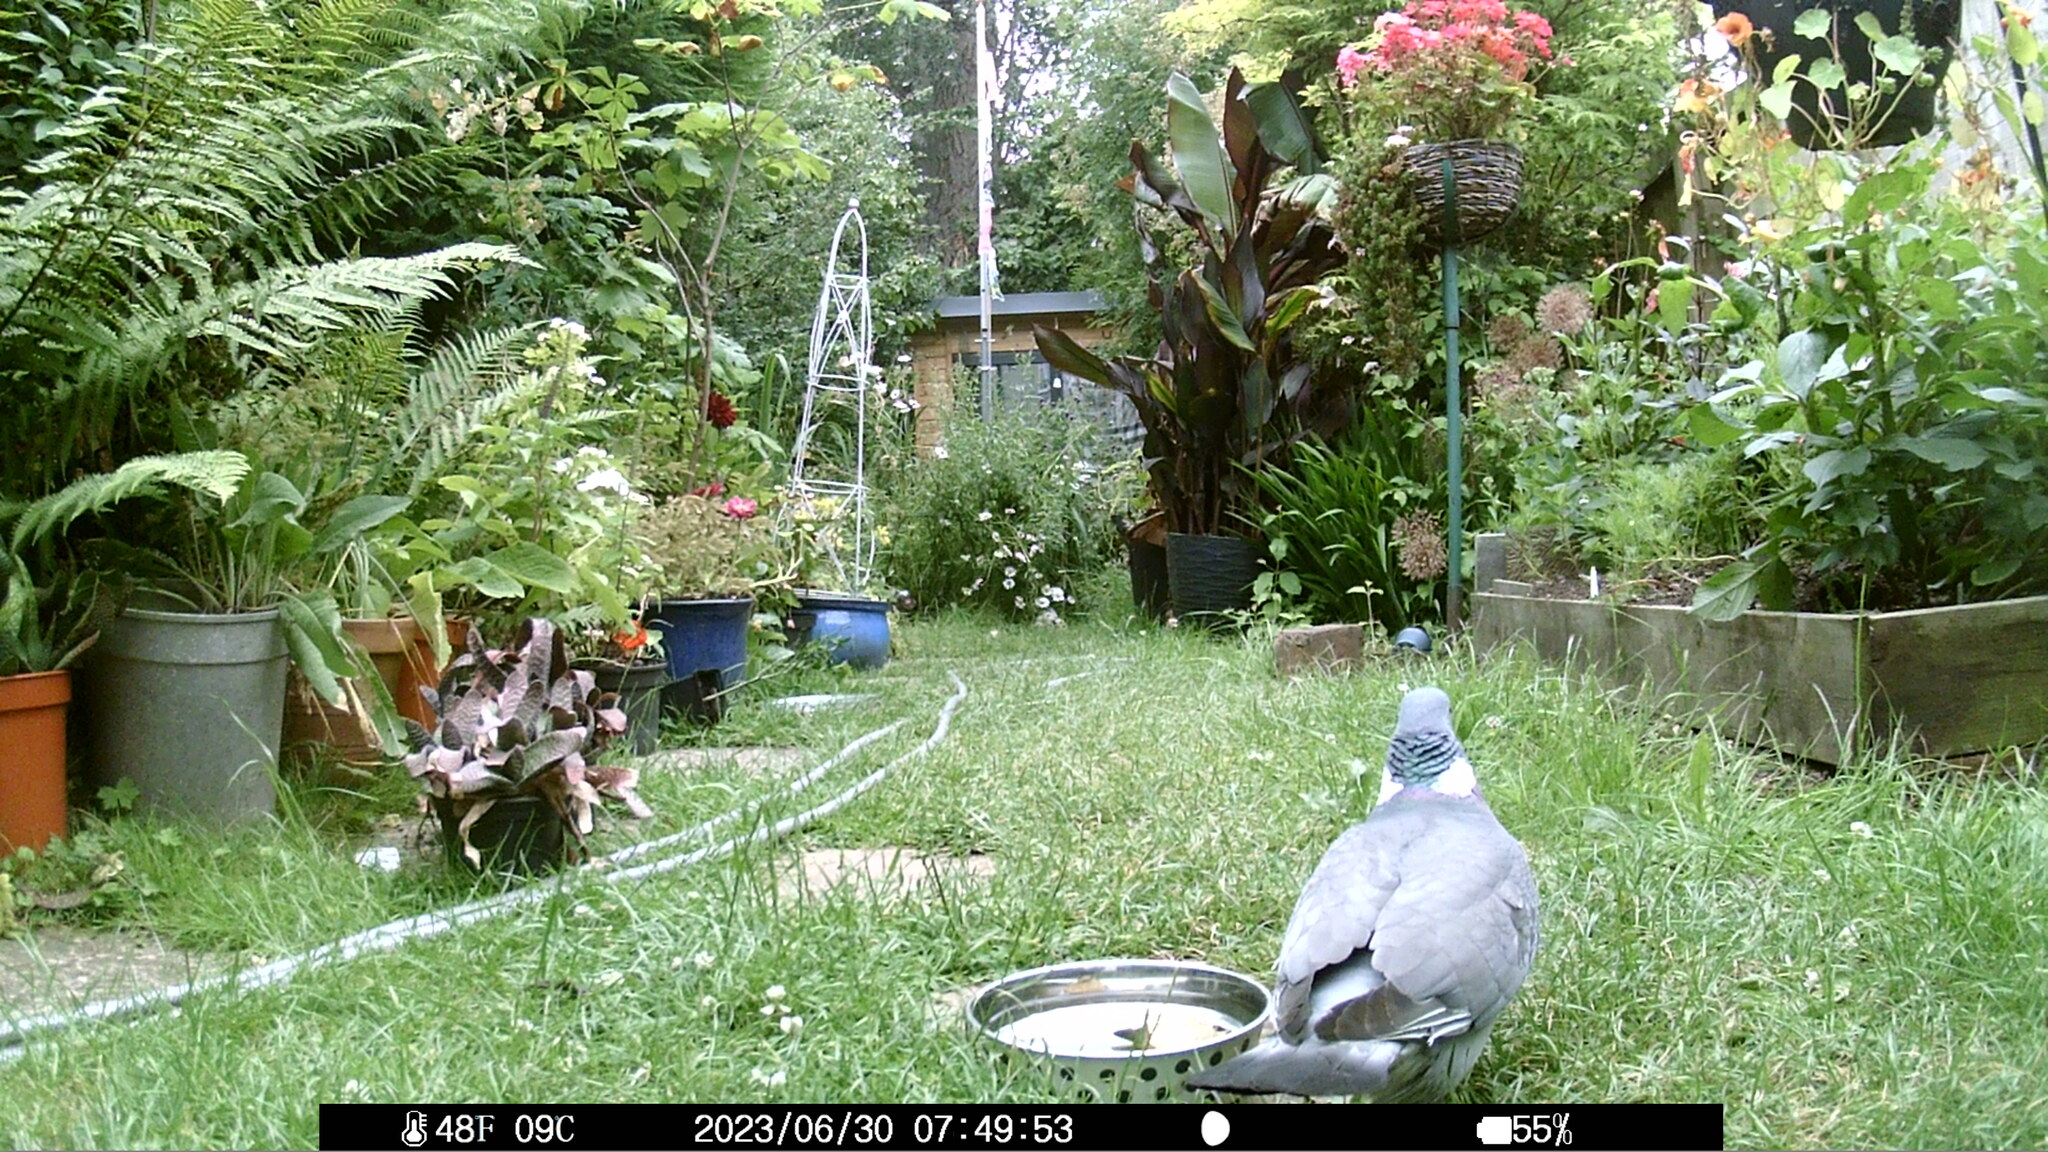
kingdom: Animalia
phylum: Chordata
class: Aves
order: Columbiformes
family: Columbidae
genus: Columba
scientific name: Columba palumbus
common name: Common wood pigeon
